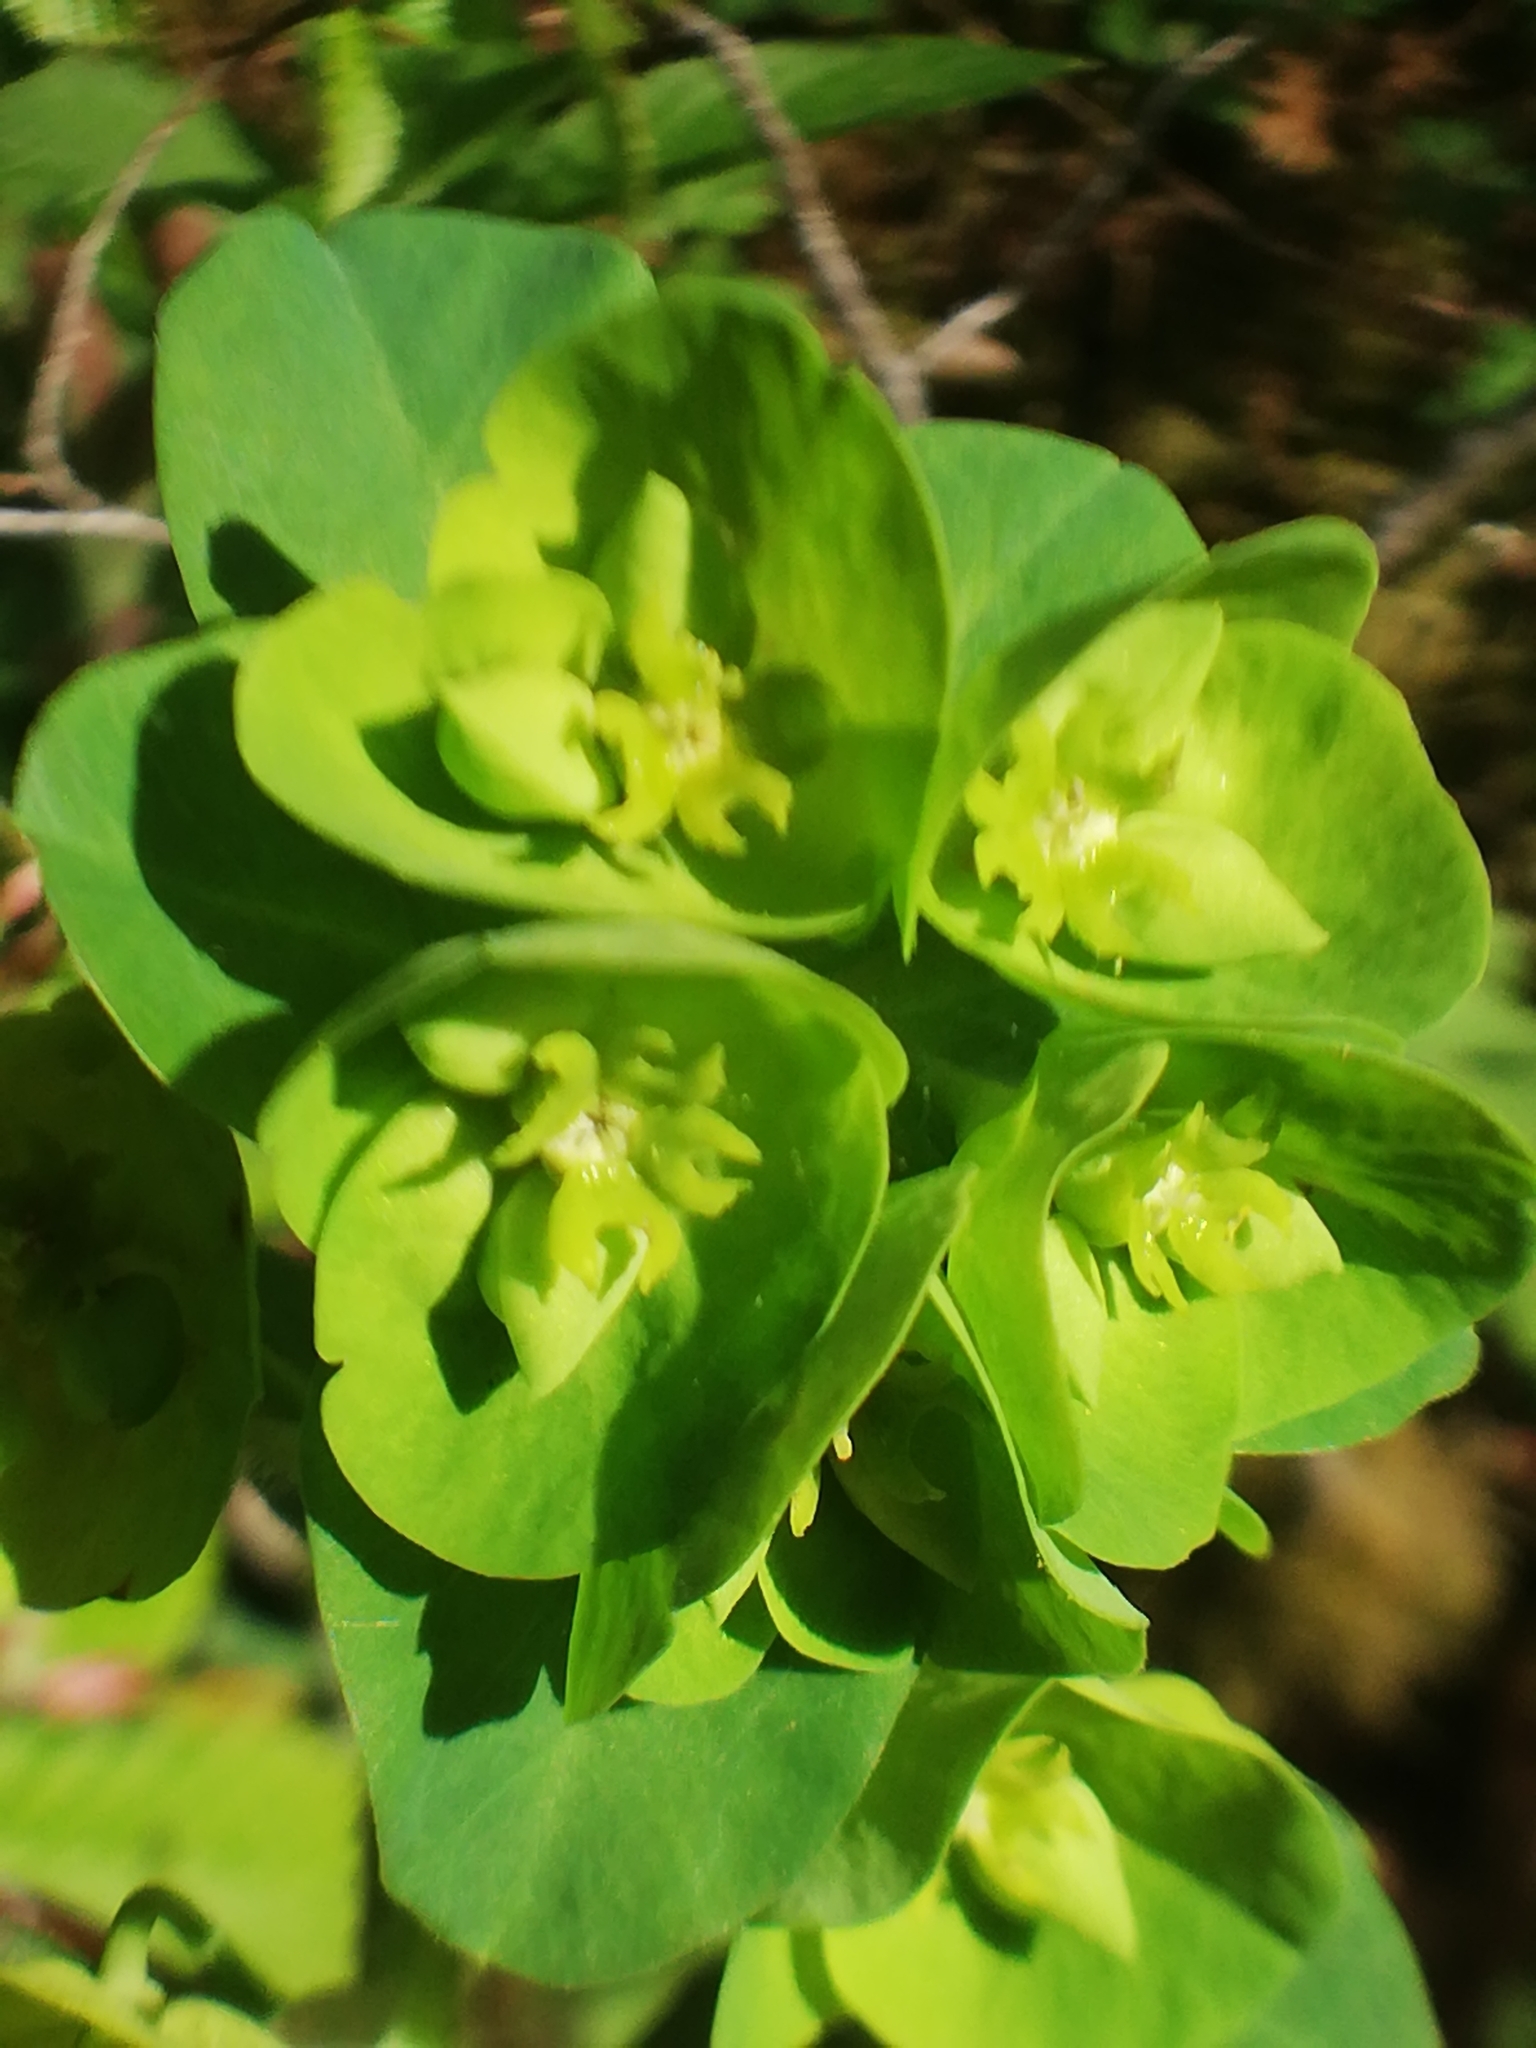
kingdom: Plantae
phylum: Tracheophyta
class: Magnoliopsida
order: Malpighiales
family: Euphorbiaceae
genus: Euphorbia
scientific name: Euphorbia amygdaloides
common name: Wood spurge
